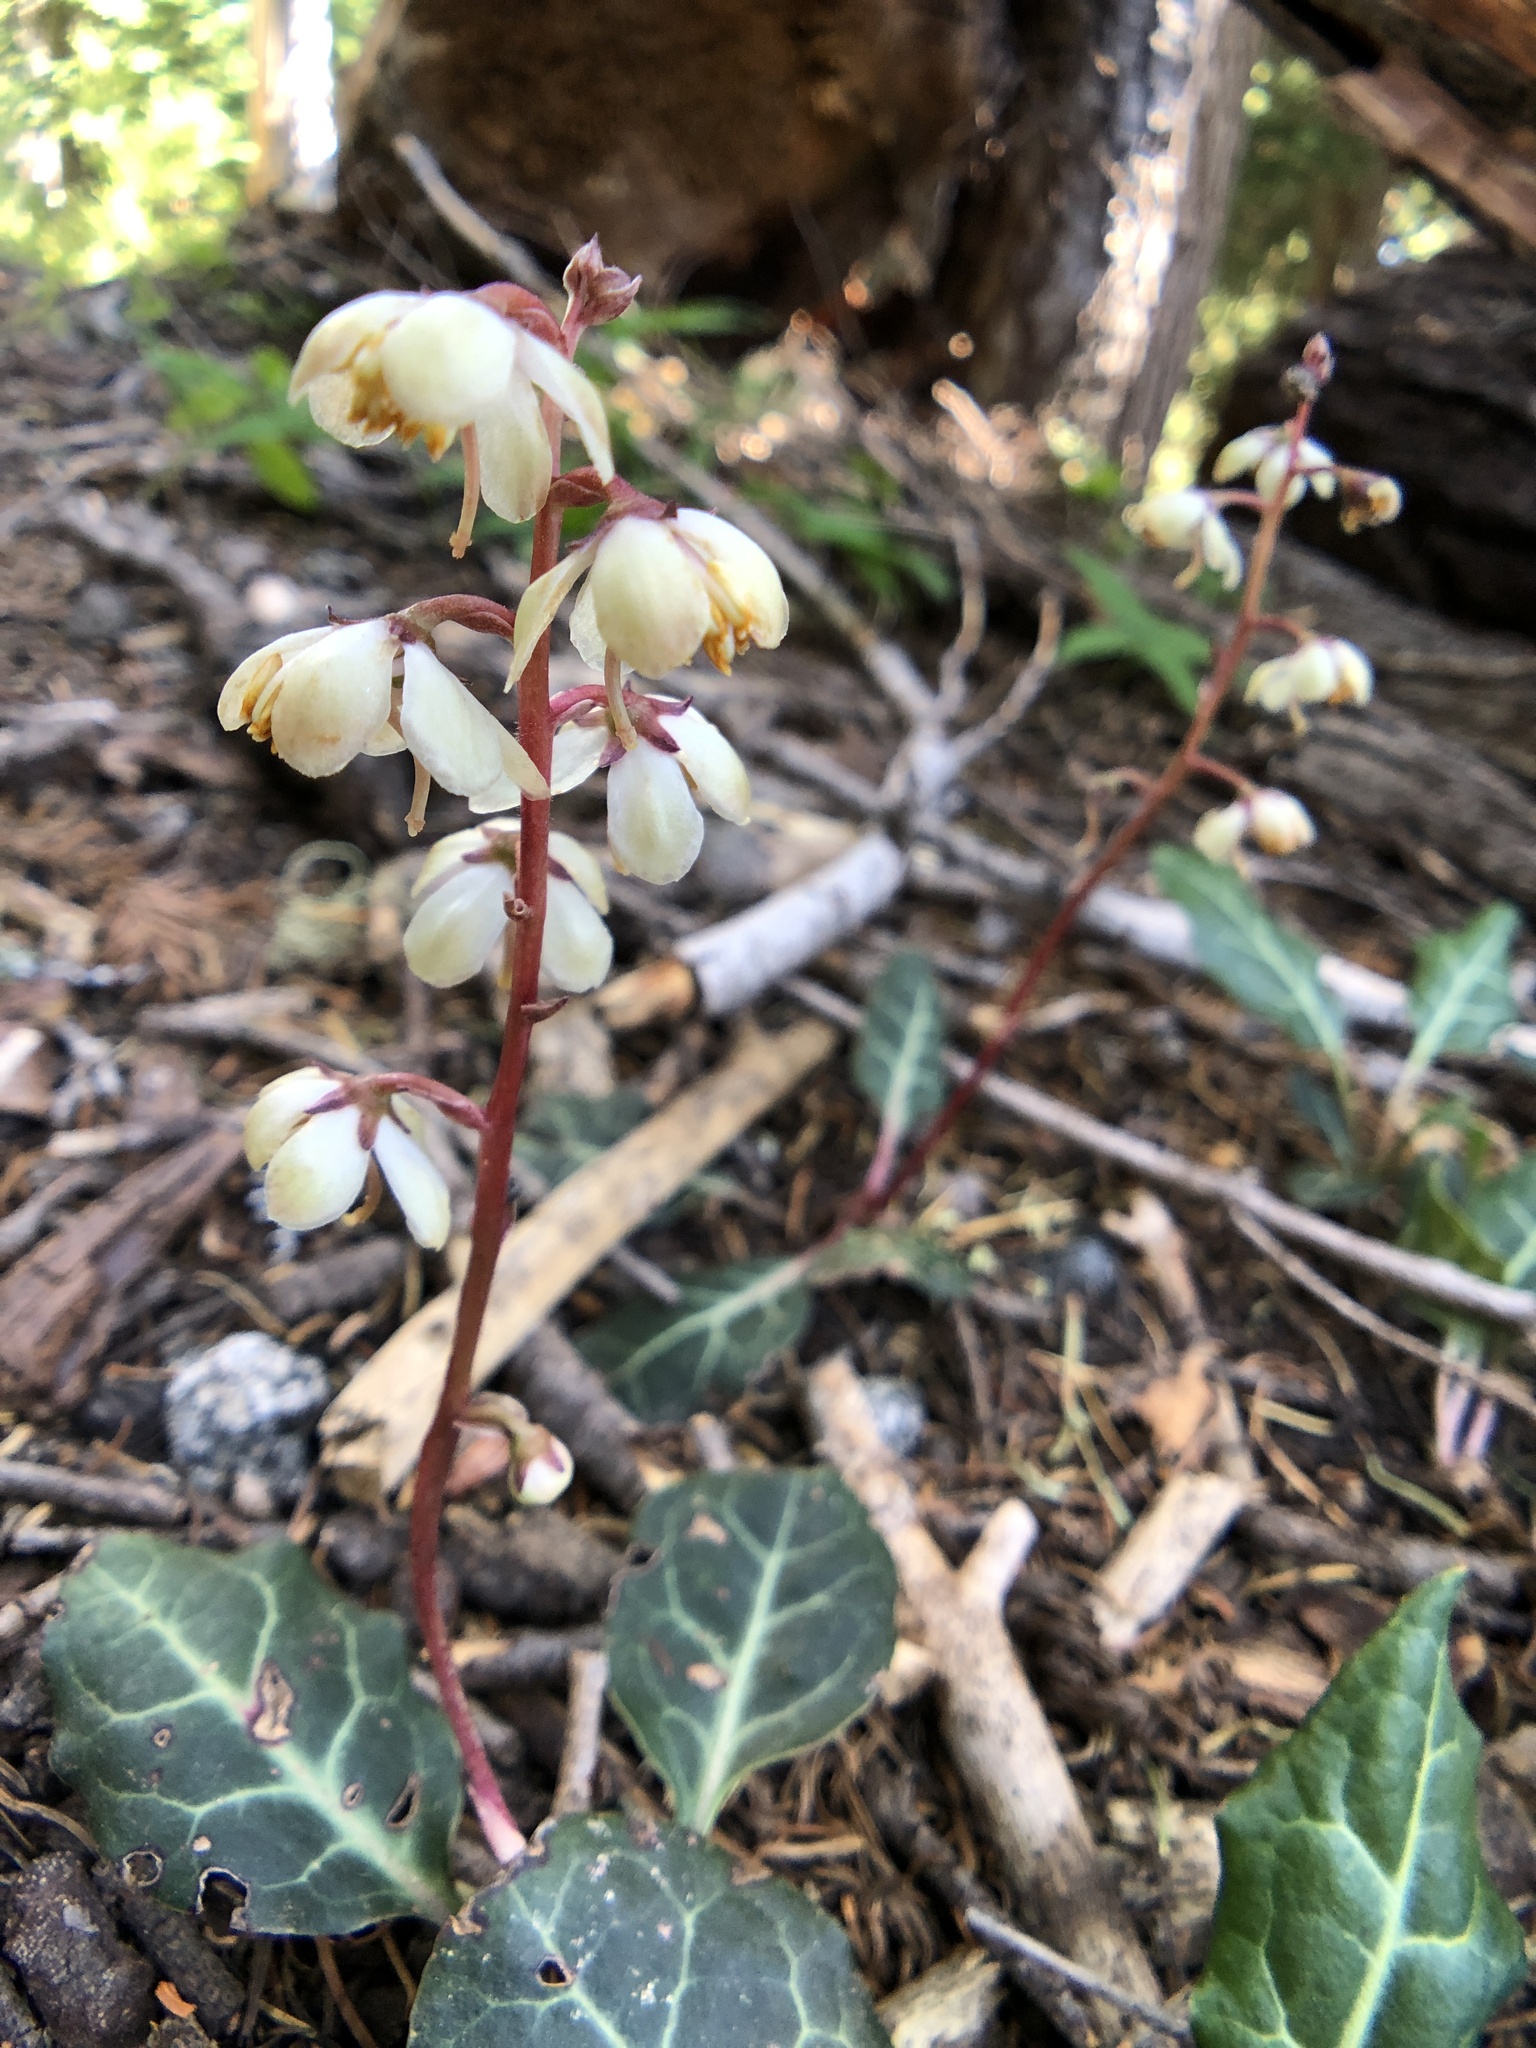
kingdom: Plantae
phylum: Tracheophyta
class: Magnoliopsida
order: Ericales
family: Ericaceae
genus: Pyrola
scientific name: Pyrola picta
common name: White-vein wintergreen
